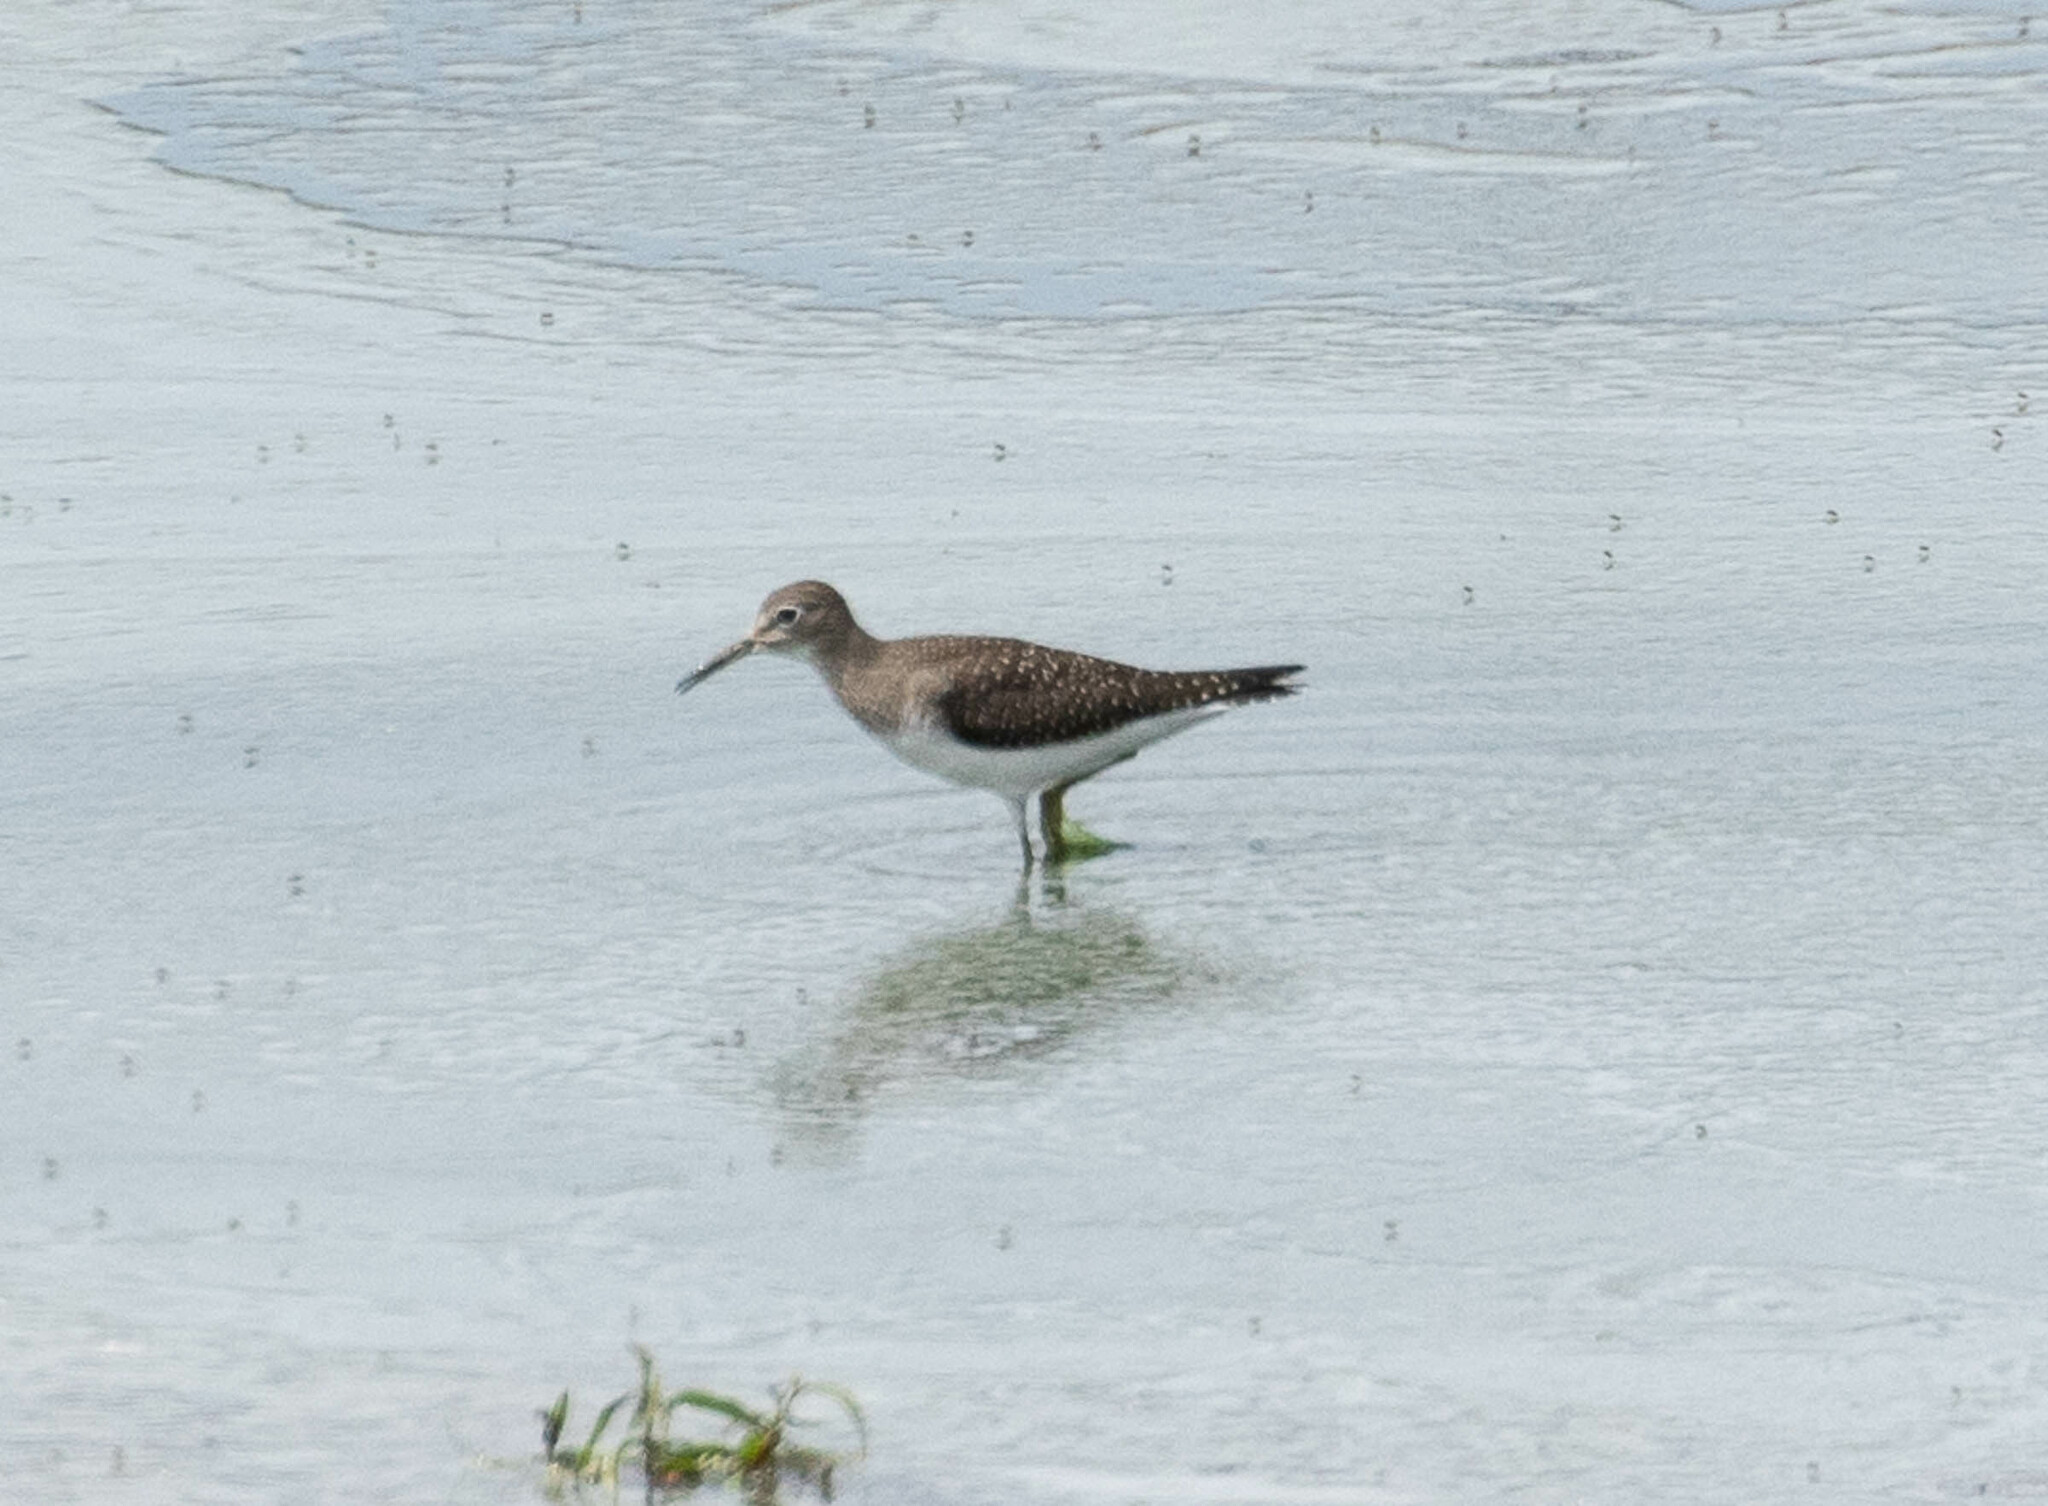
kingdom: Animalia
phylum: Chordata
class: Aves
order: Charadriiformes
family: Scolopacidae
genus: Tringa
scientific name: Tringa solitaria
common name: Solitary sandpiper
